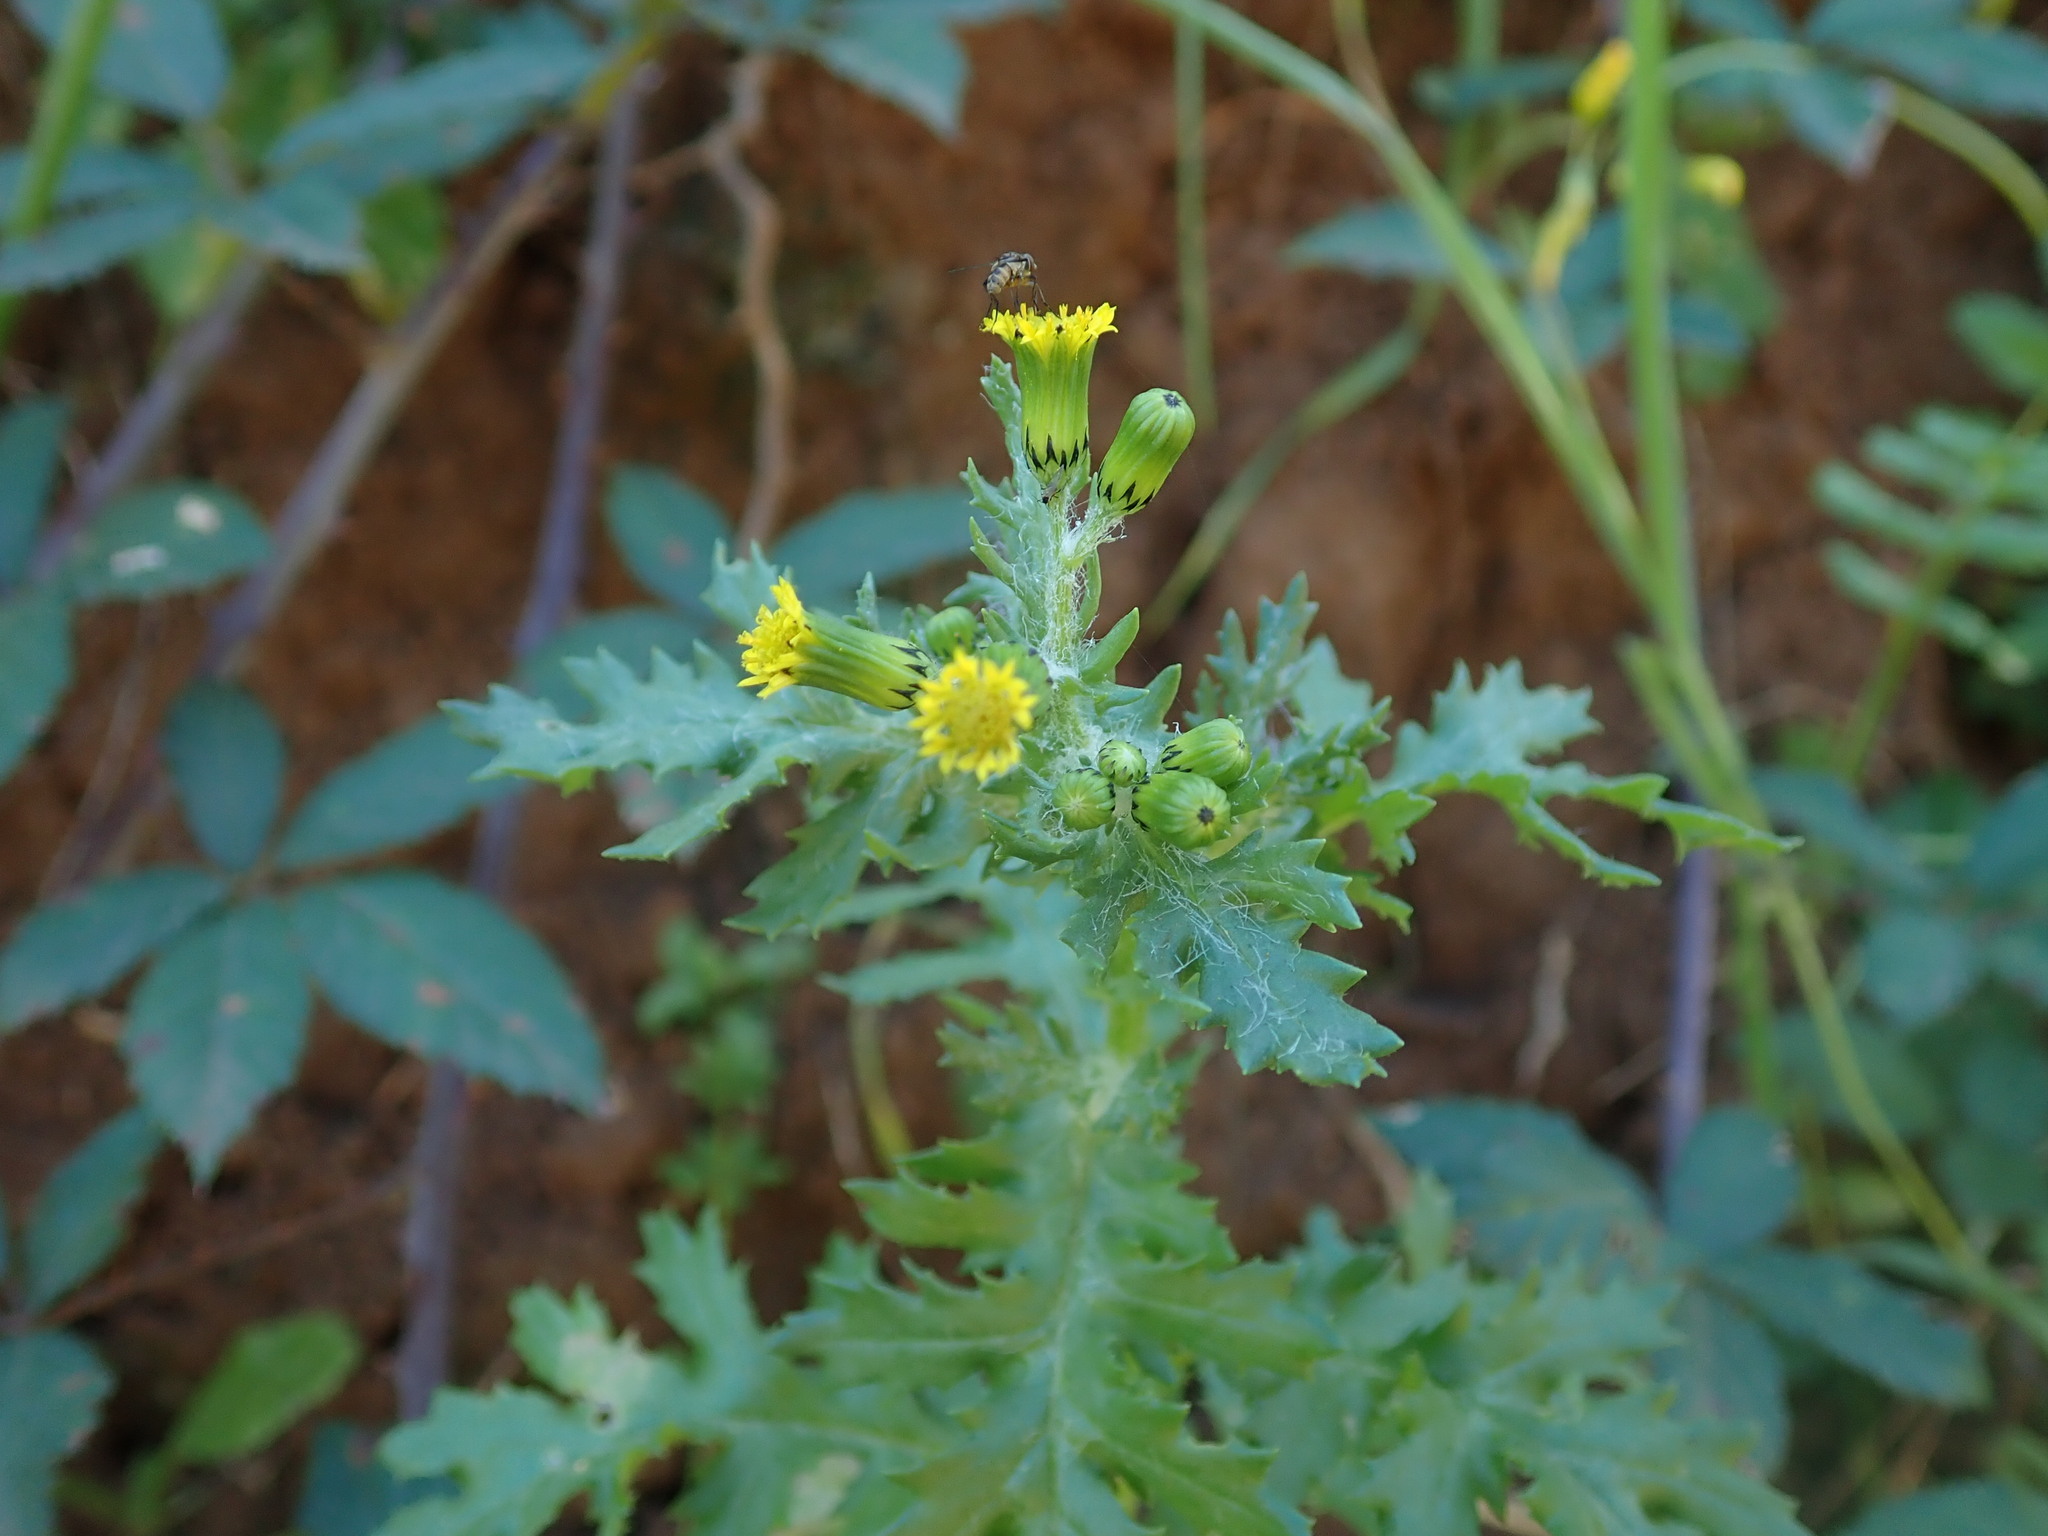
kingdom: Plantae
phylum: Tracheophyta
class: Magnoliopsida
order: Asterales
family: Asteraceae
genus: Senecio
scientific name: Senecio vulgaris
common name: Old-man-in-the-spring
